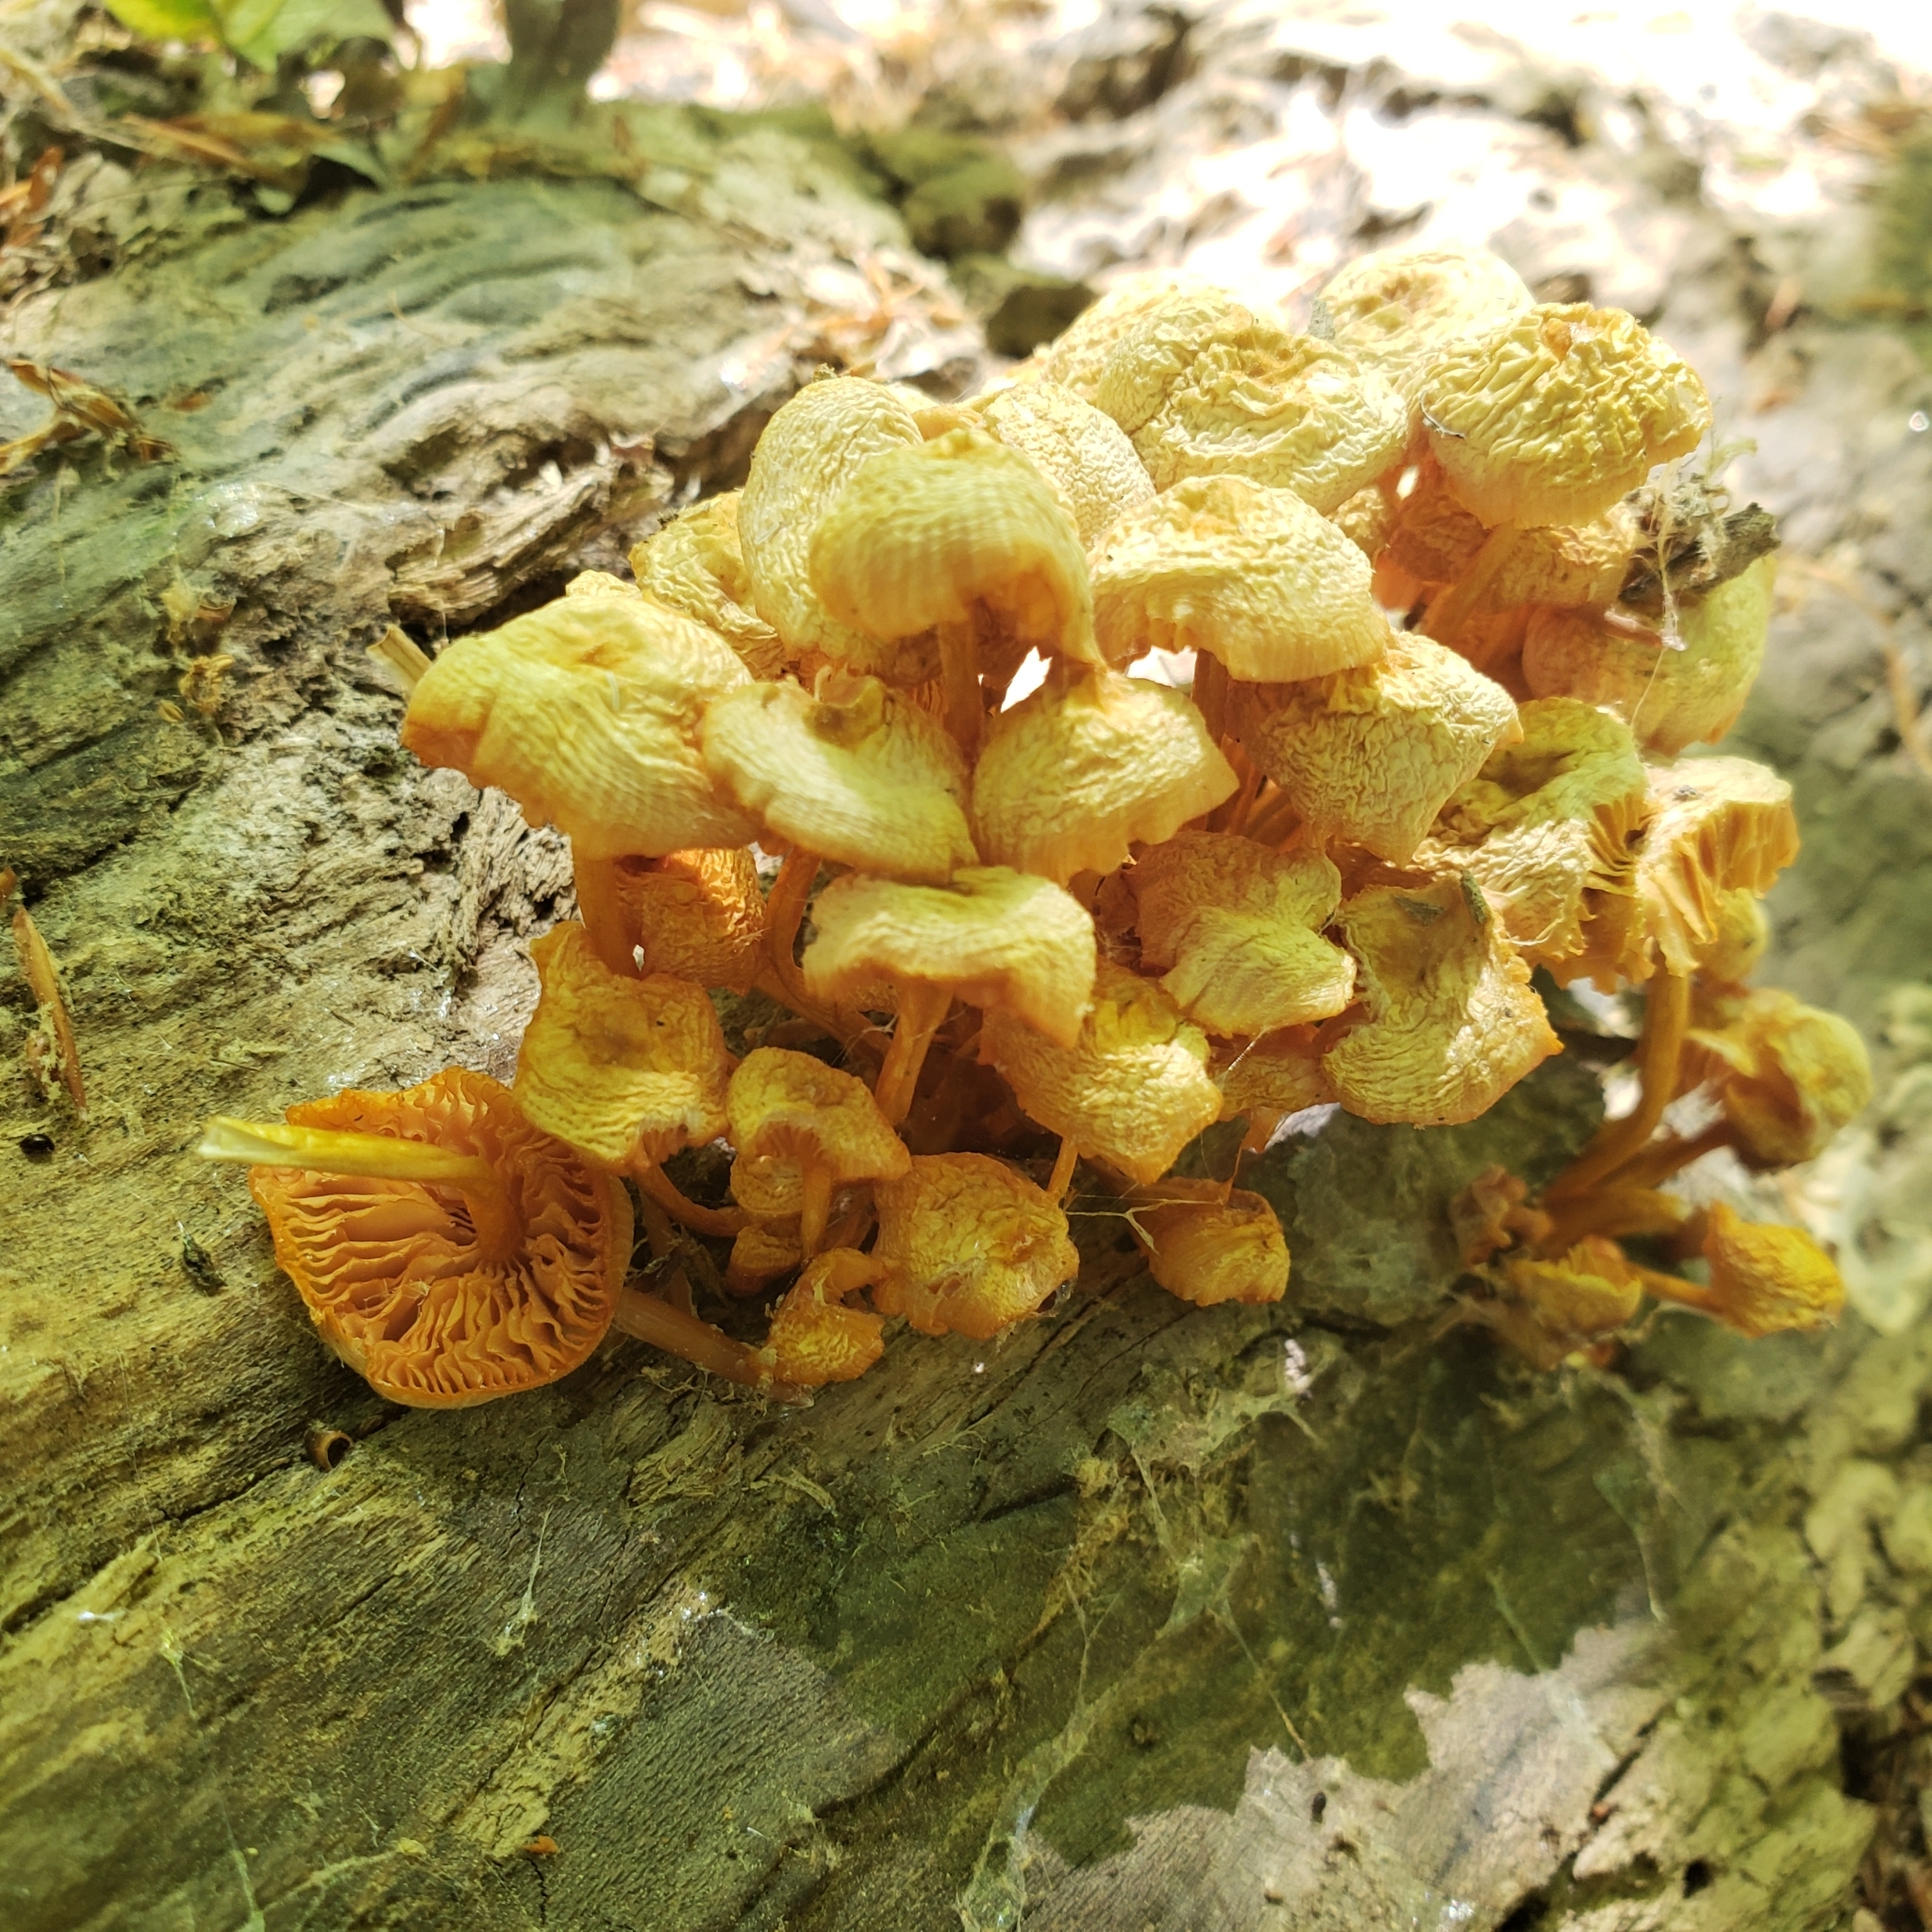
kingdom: Fungi
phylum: Basidiomycota
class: Agaricomycetes
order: Agaricales
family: Mycenaceae
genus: Mycena
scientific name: Mycena leaiana
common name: Orange mycena
